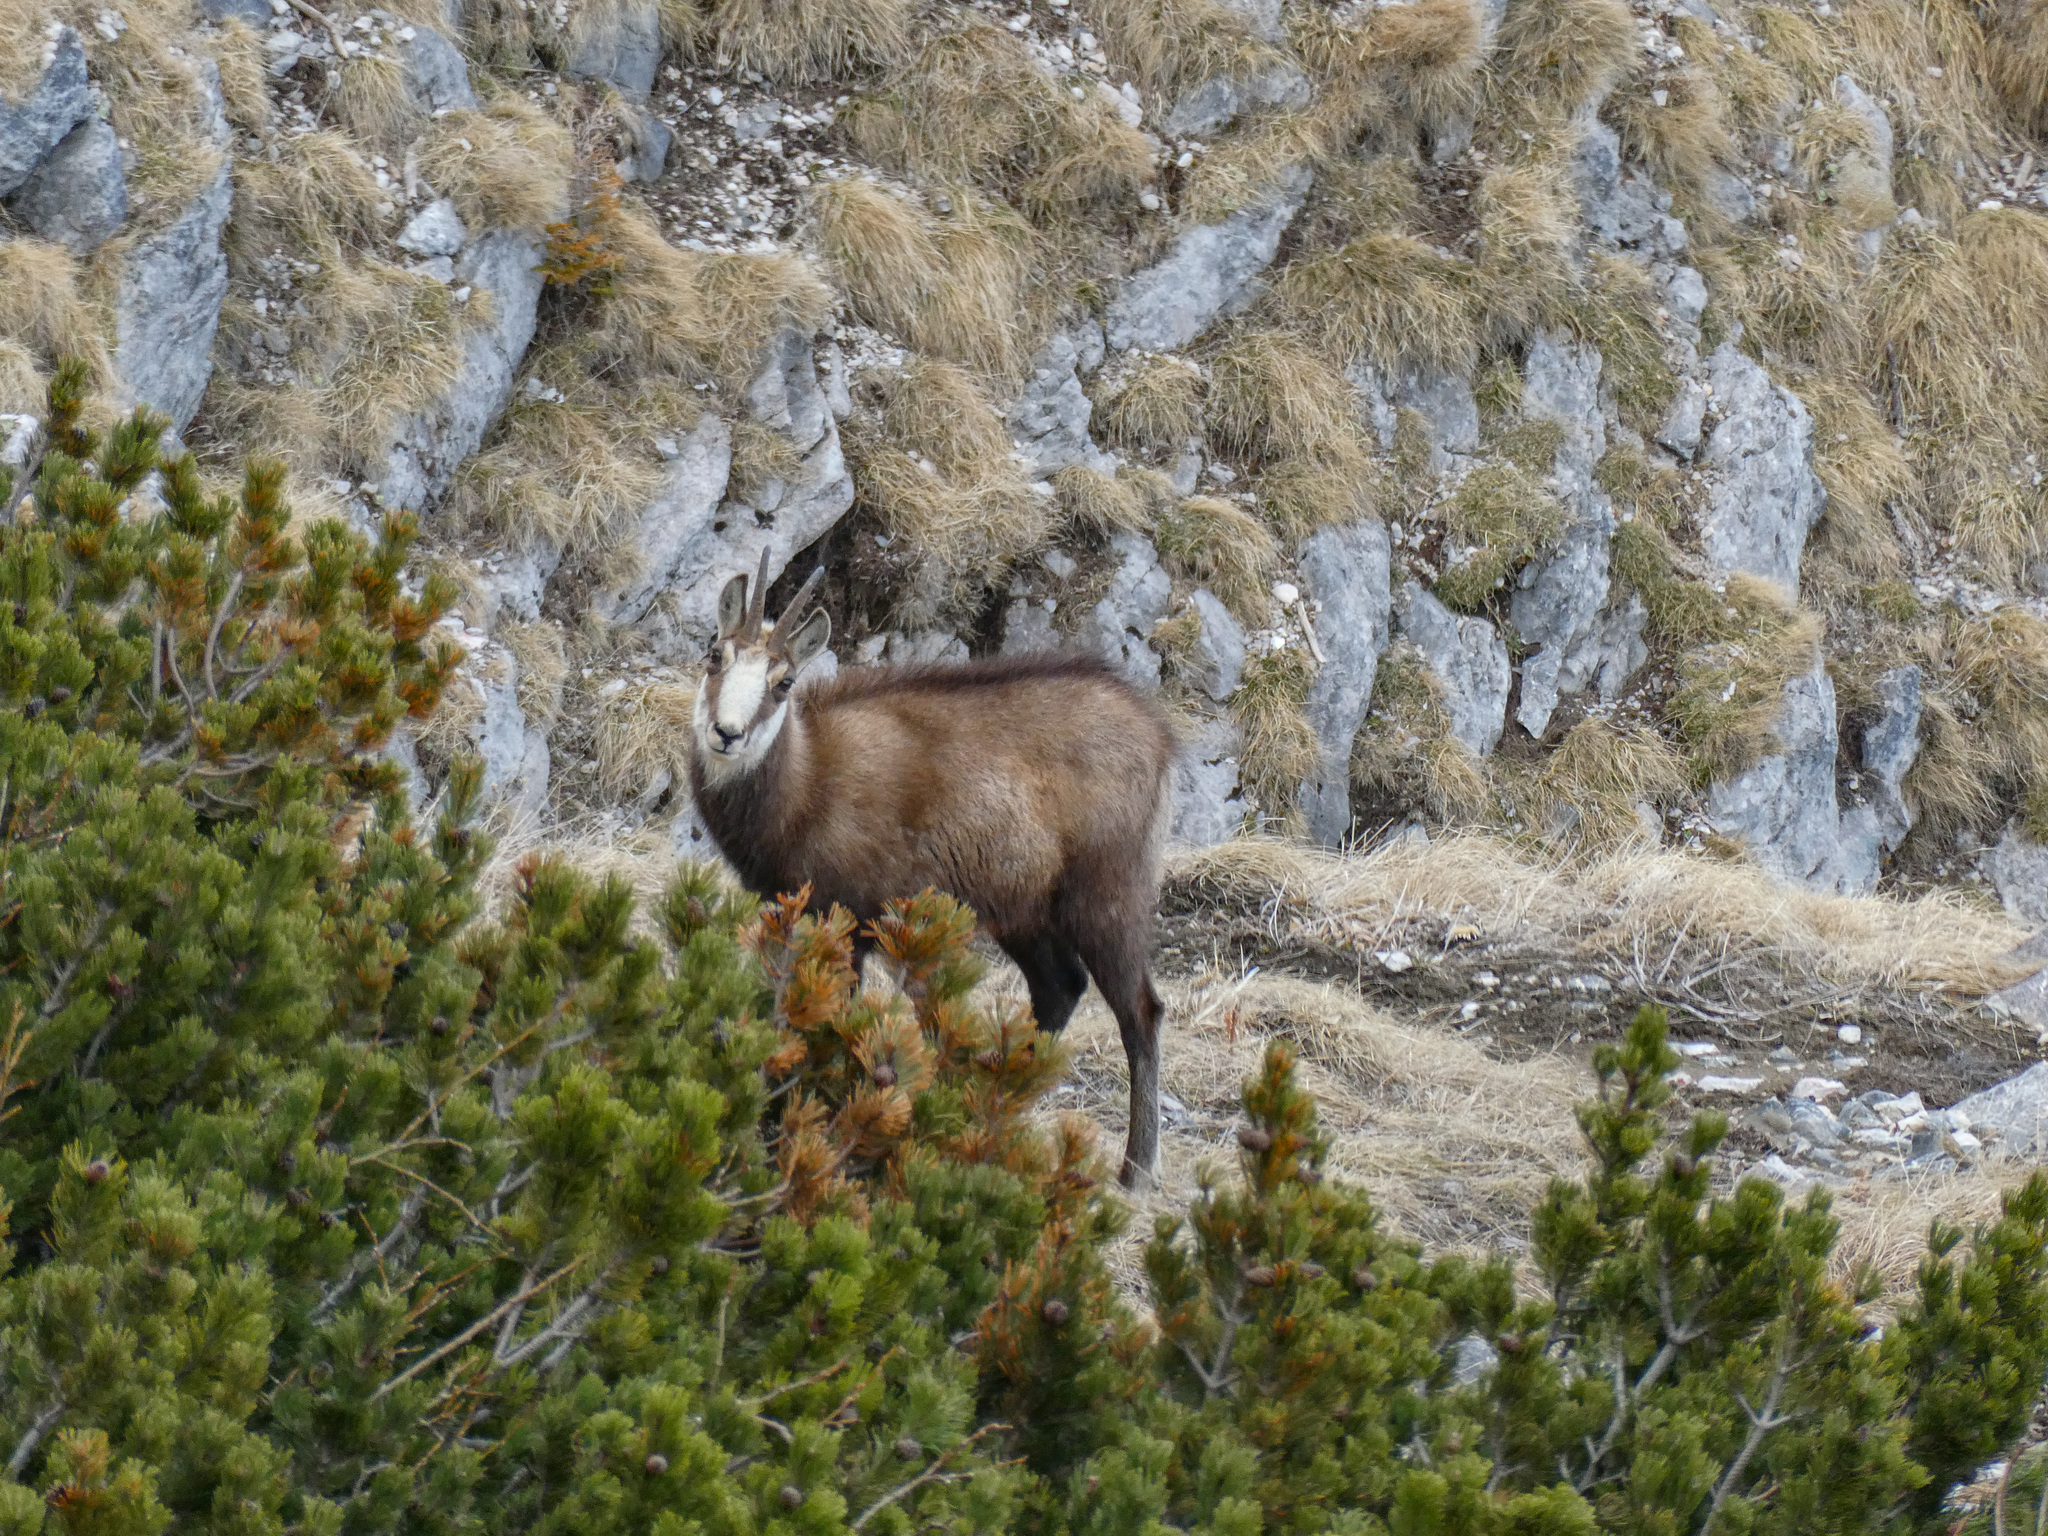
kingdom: Animalia
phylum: Chordata
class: Mammalia
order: Artiodactyla
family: Bovidae
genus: Rupicapra
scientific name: Rupicapra rupicapra
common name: Chamois
